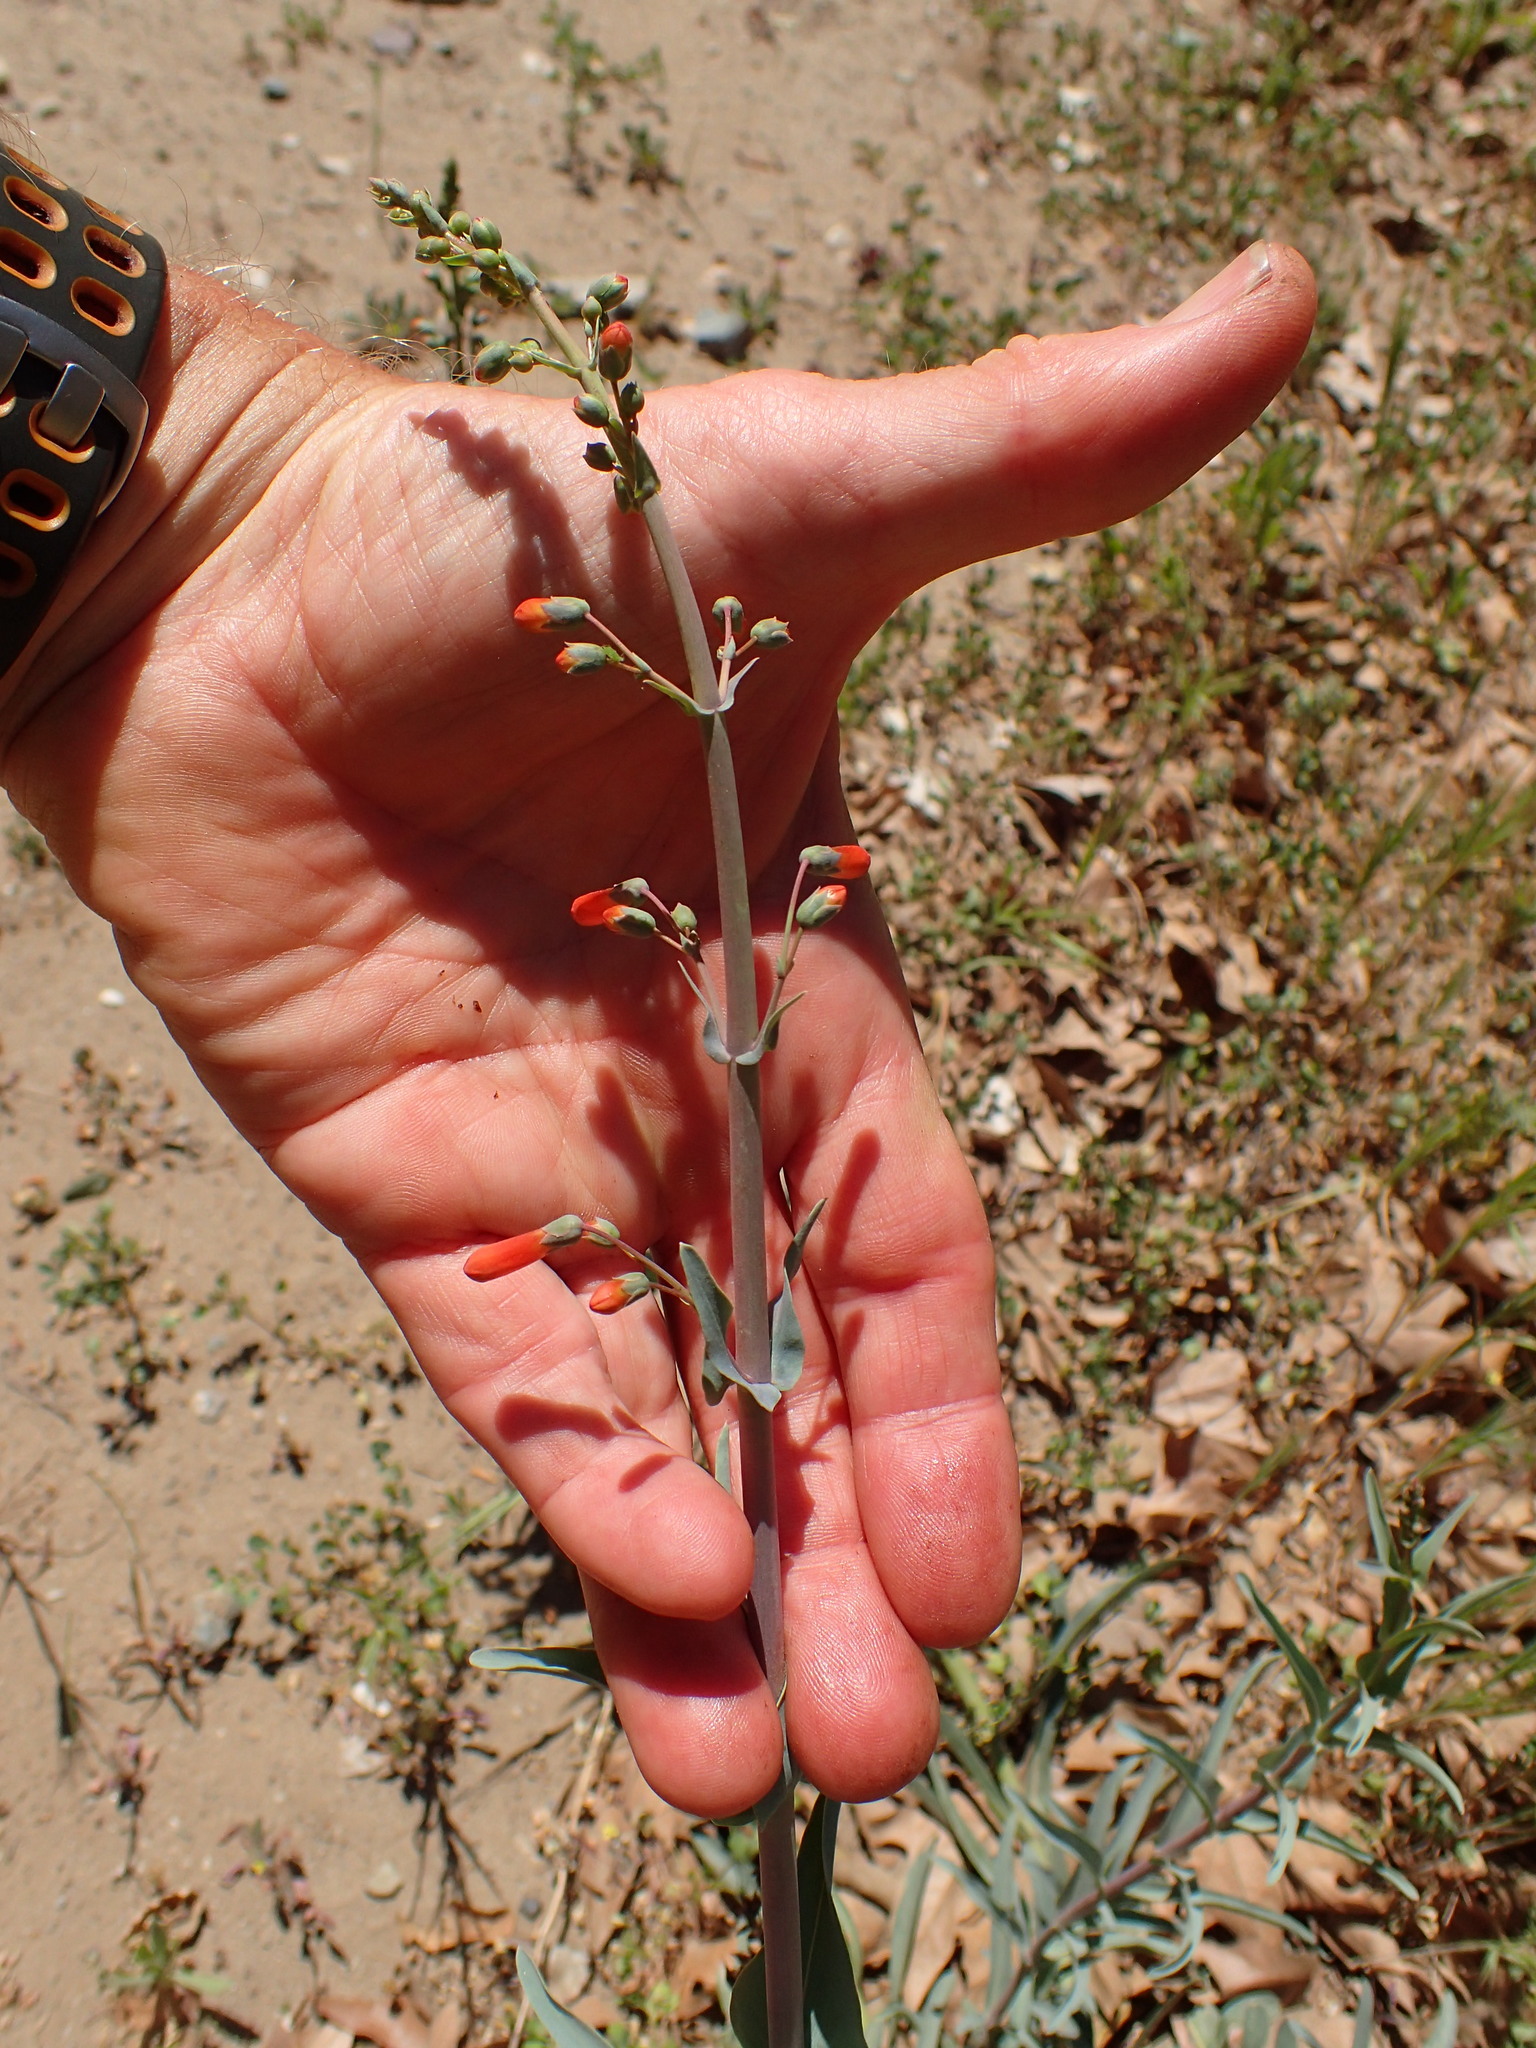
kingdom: Plantae
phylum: Tracheophyta
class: Magnoliopsida
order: Lamiales
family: Plantaginaceae
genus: Penstemon
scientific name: Penstemon centranthifolius
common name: Scarlet bugler
